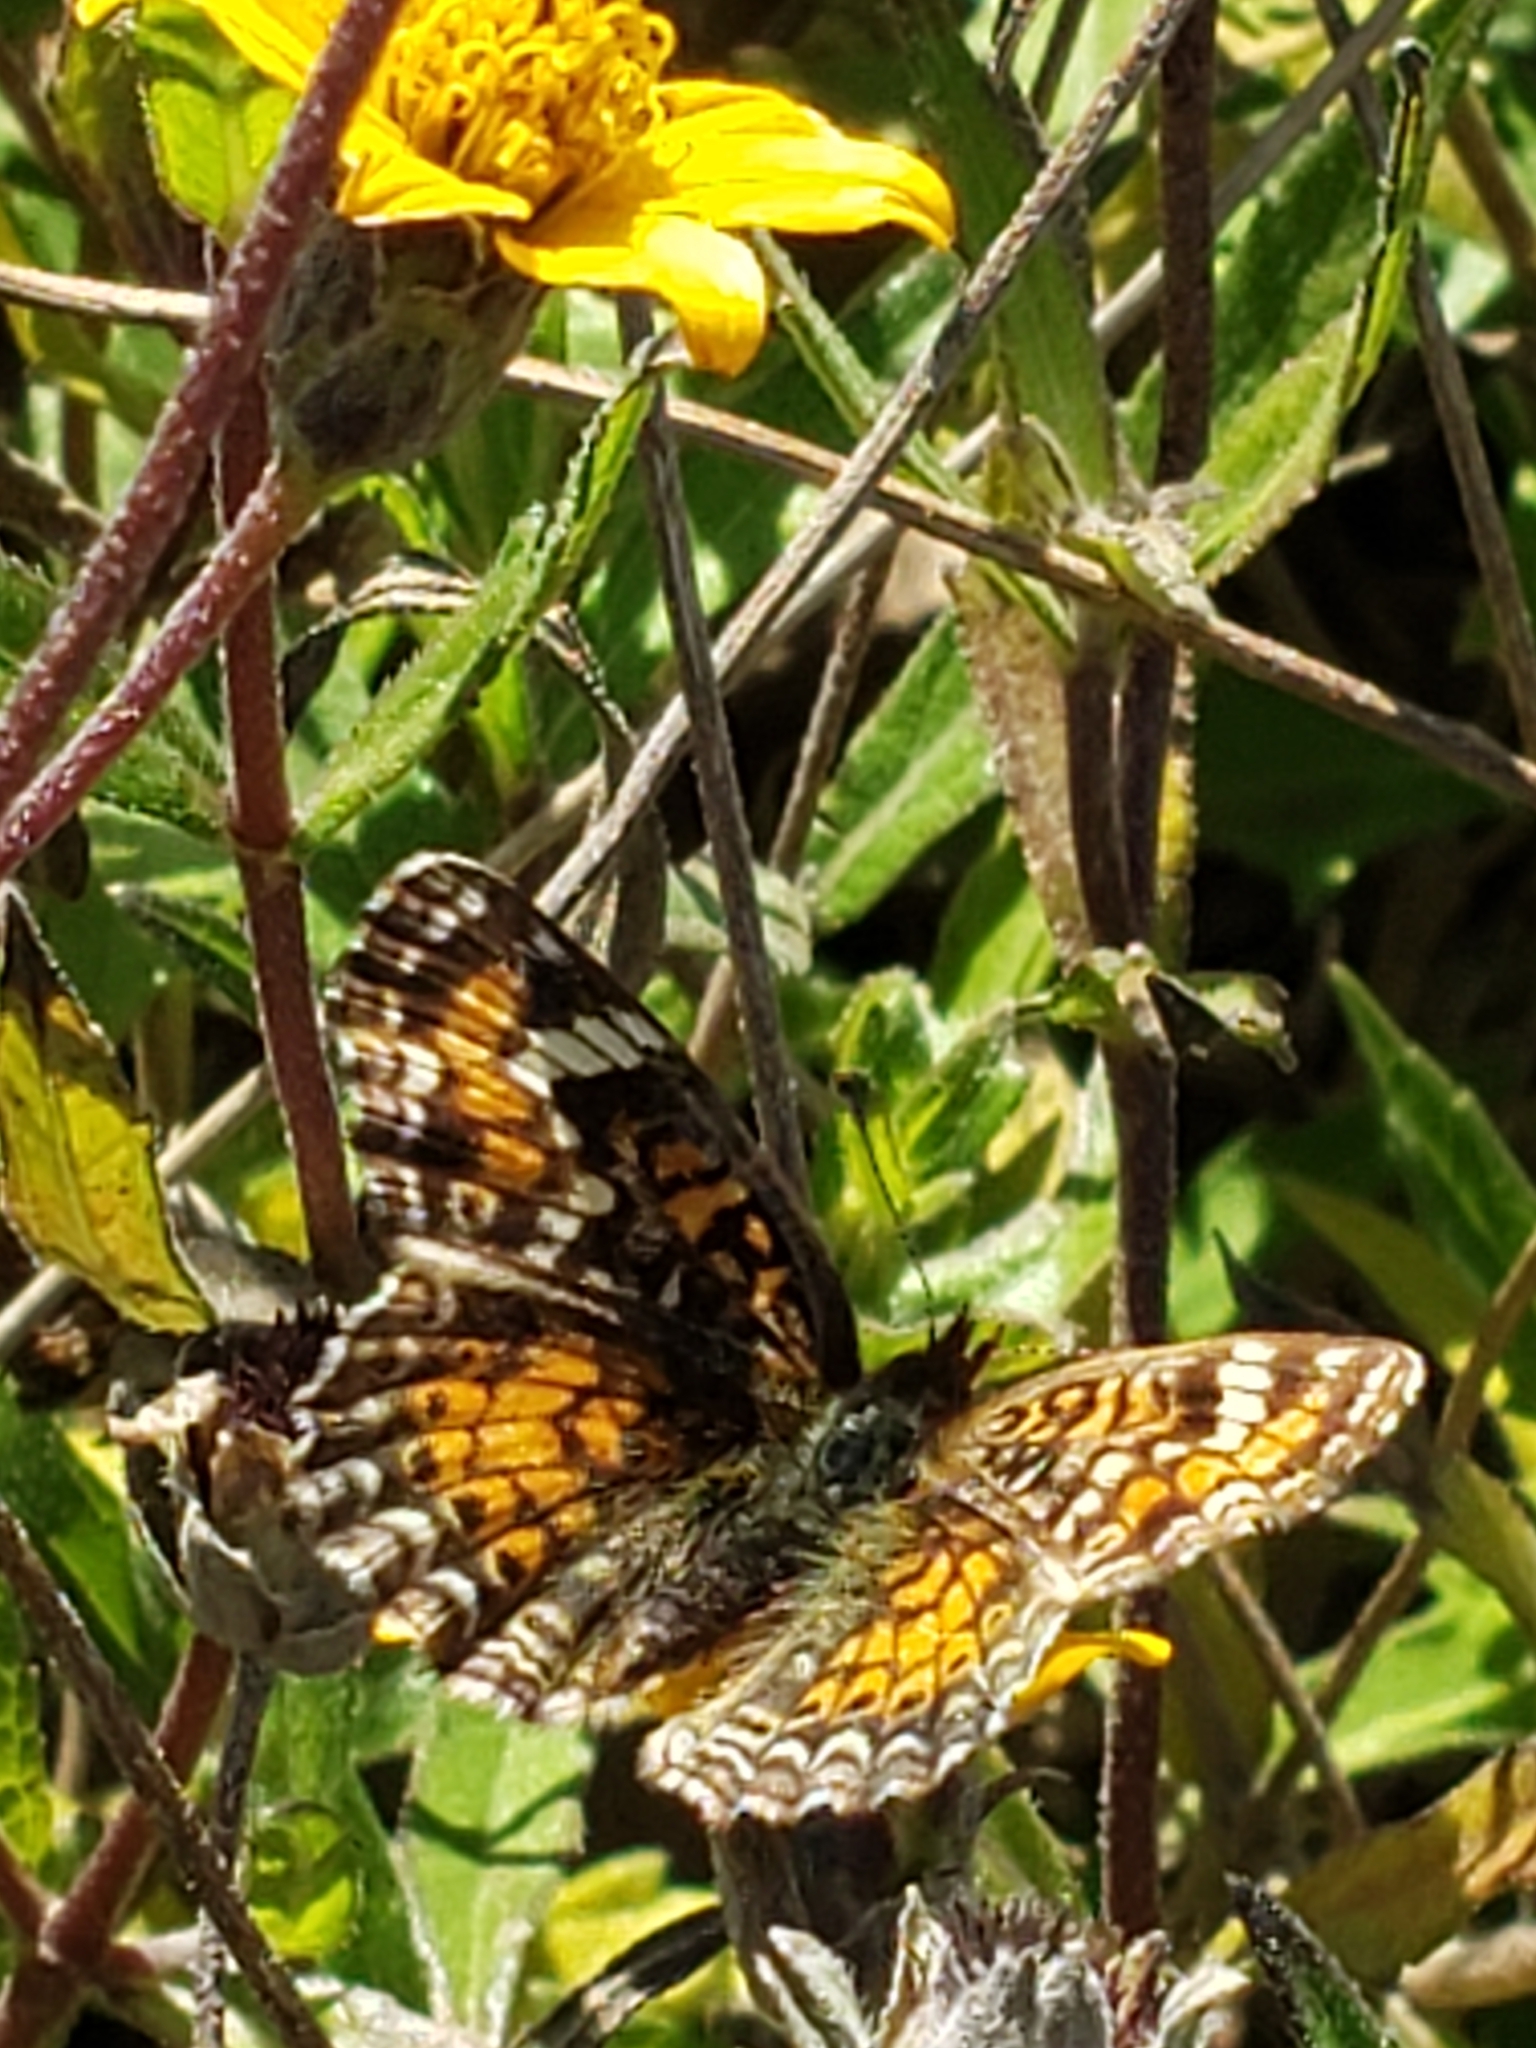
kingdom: Animalia
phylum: Arthropoda
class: Insecta
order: Lepidoptera
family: Nymphalidae
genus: Phyciodes
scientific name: Phyciodes phaon
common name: Phaon crescent
